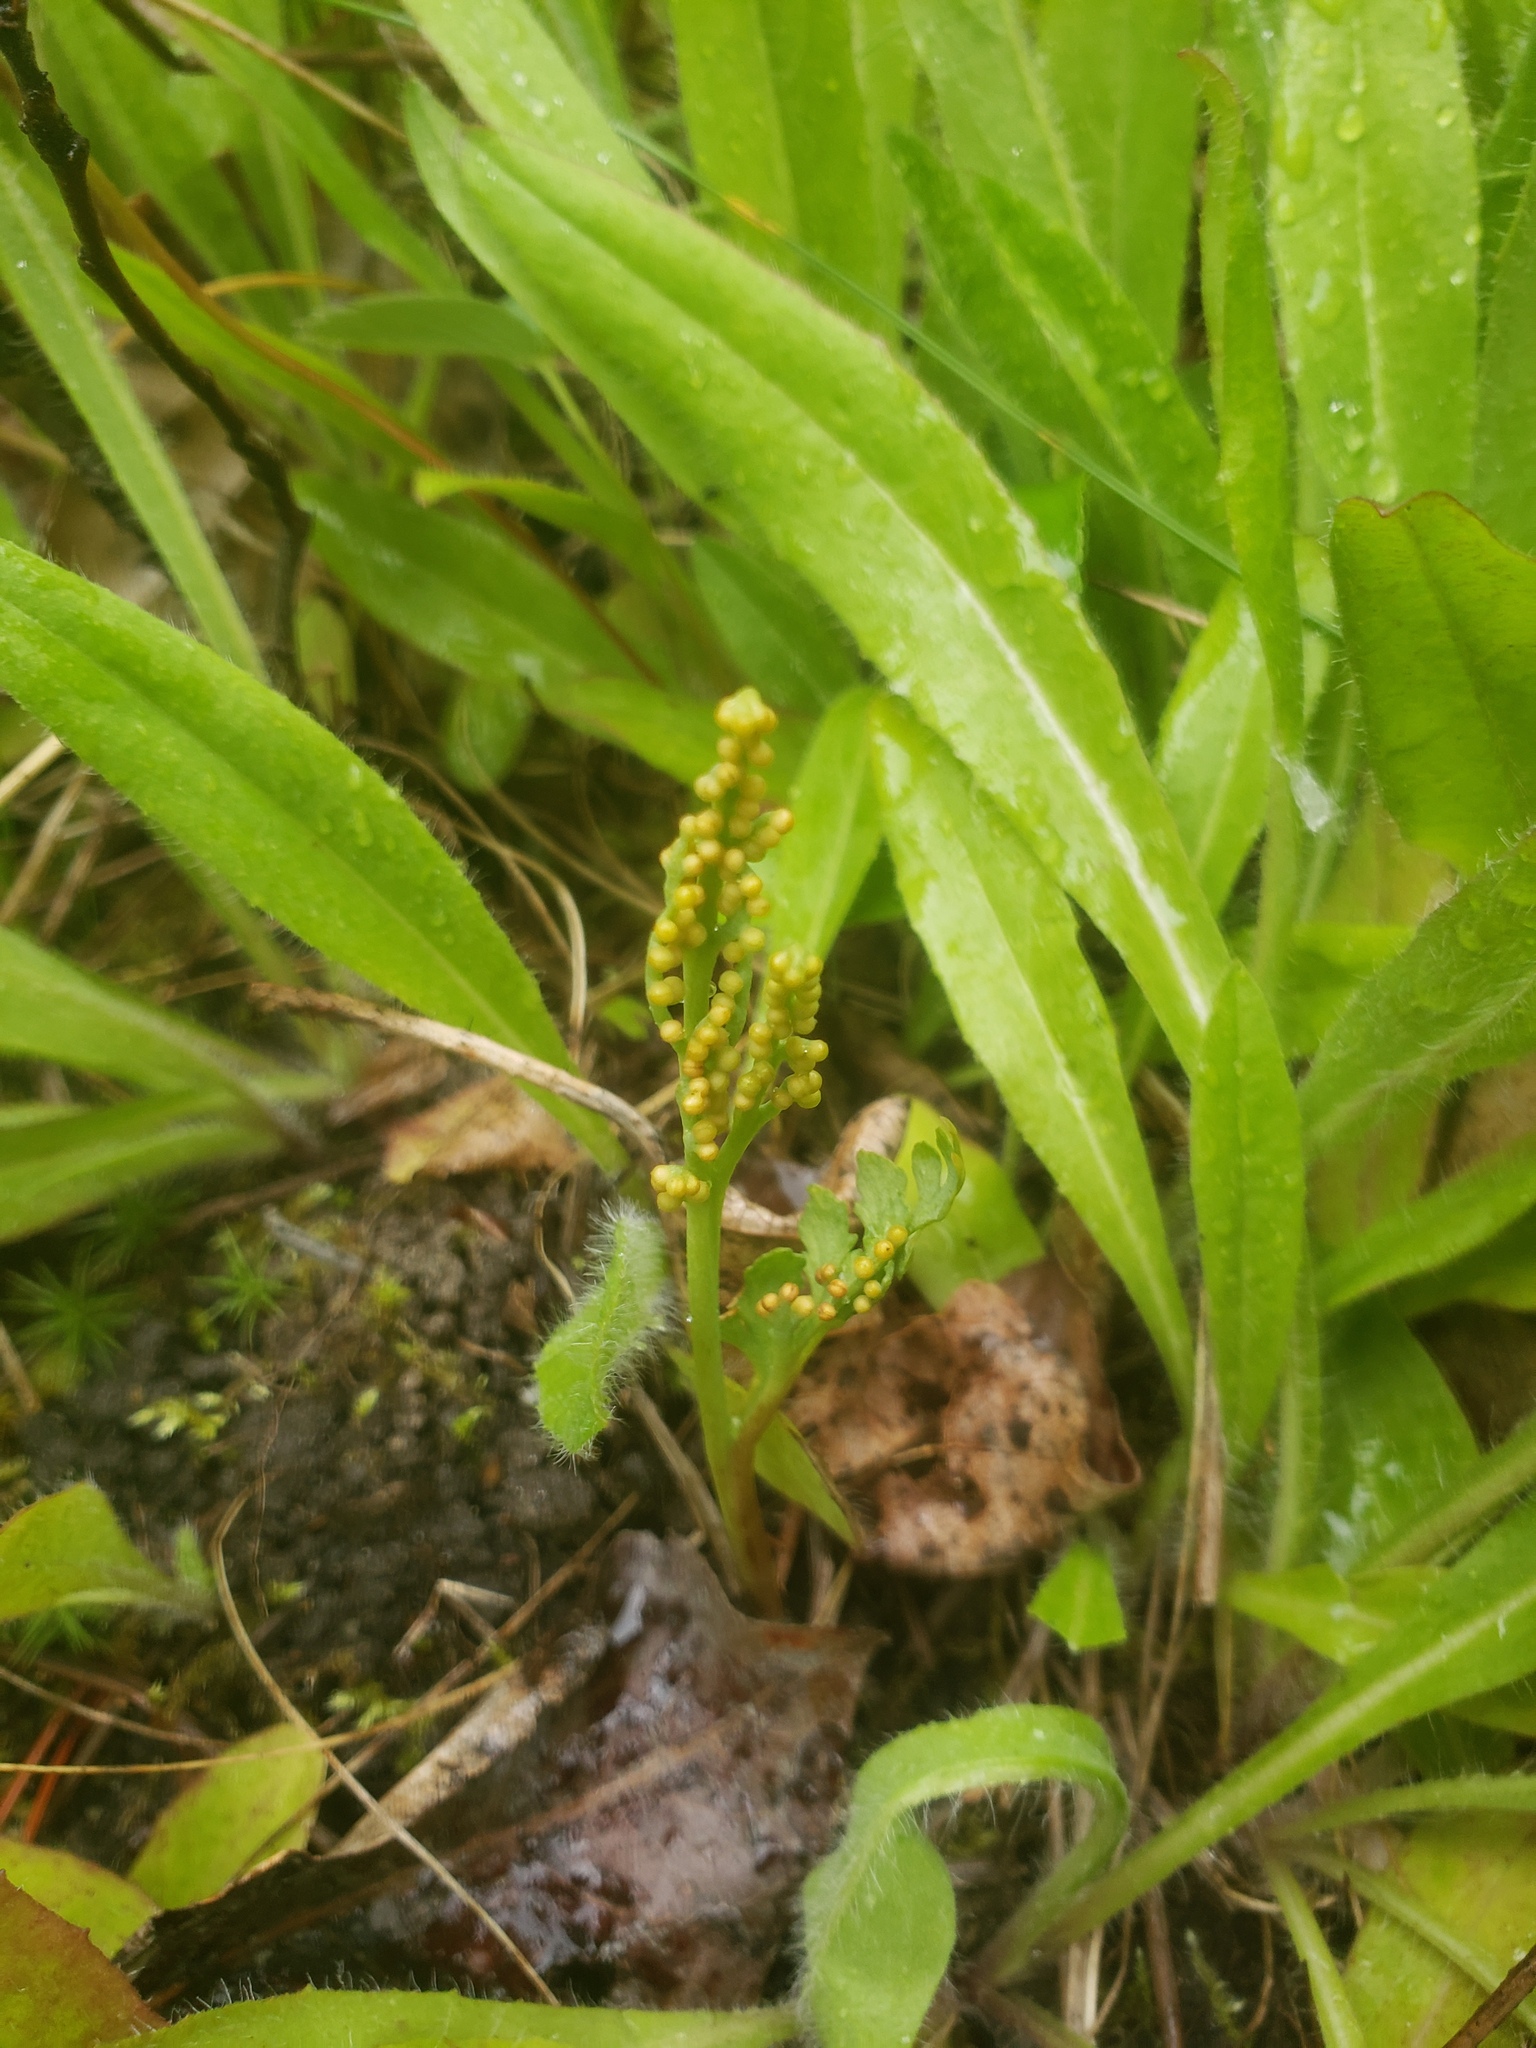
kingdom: Plantae
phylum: Tracheophyta
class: Polypodiopsida
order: Ophioglossales
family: Ophioglossaceae
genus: Botrychium
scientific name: Botrychium pedunculosum
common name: Stalked moonwort
